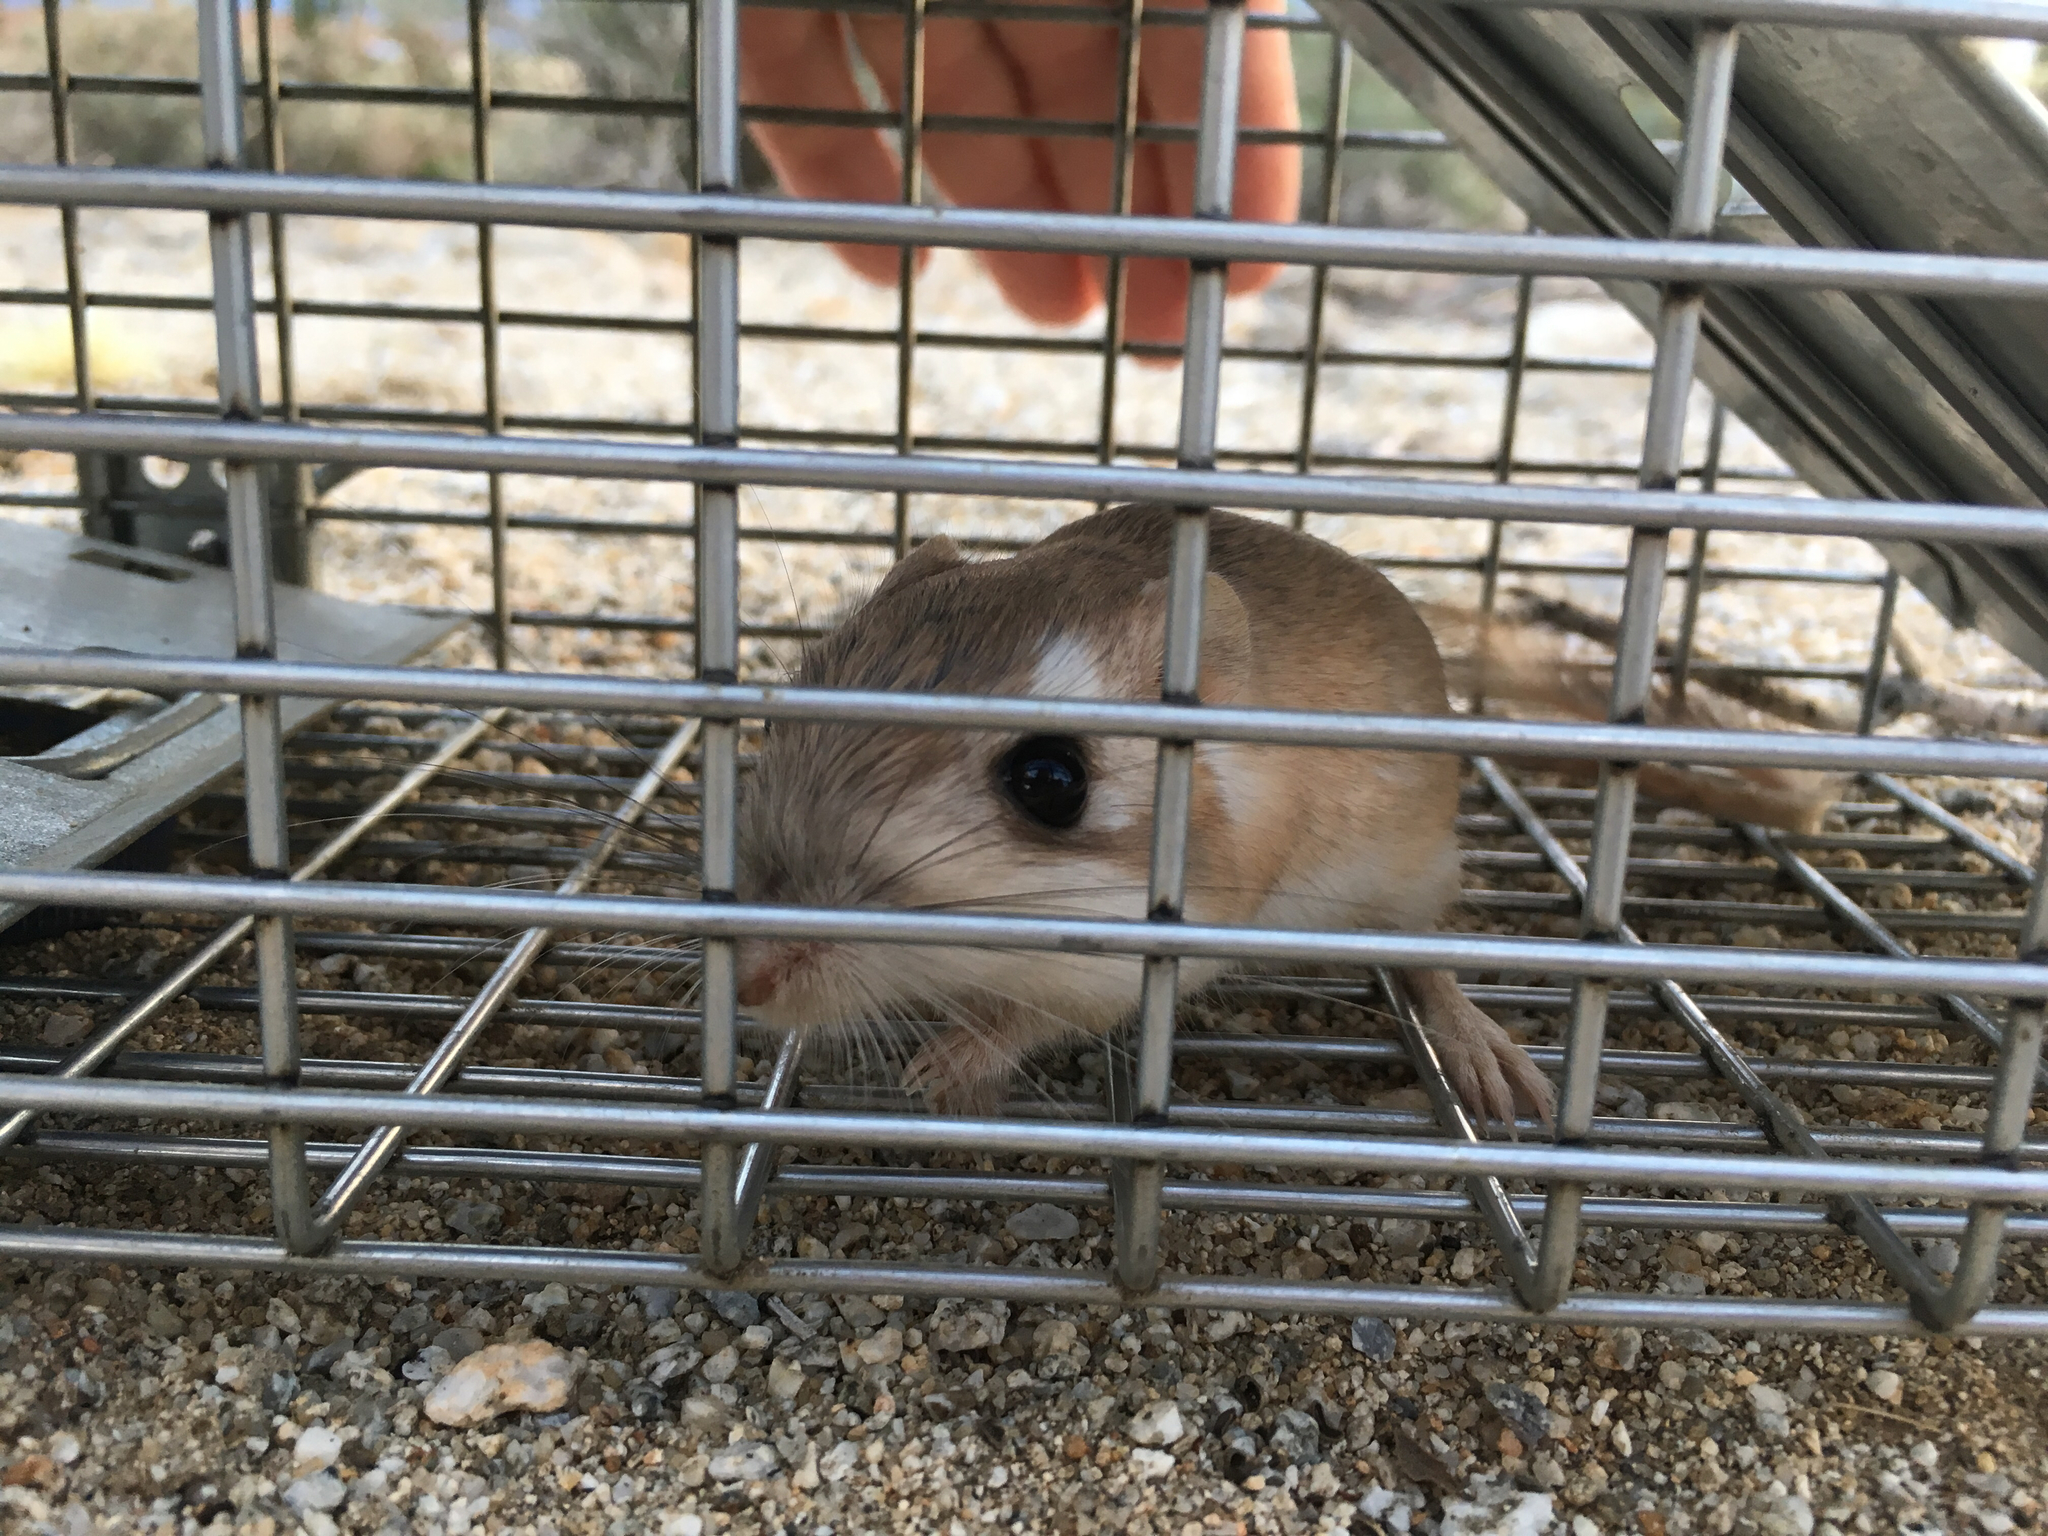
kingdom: Animalia
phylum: Chordata
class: Mammalia
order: Rodentia
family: Heteromyidae
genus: Dipodomys
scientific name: Dipodomys merriami
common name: Merriam's kangaroo rat
